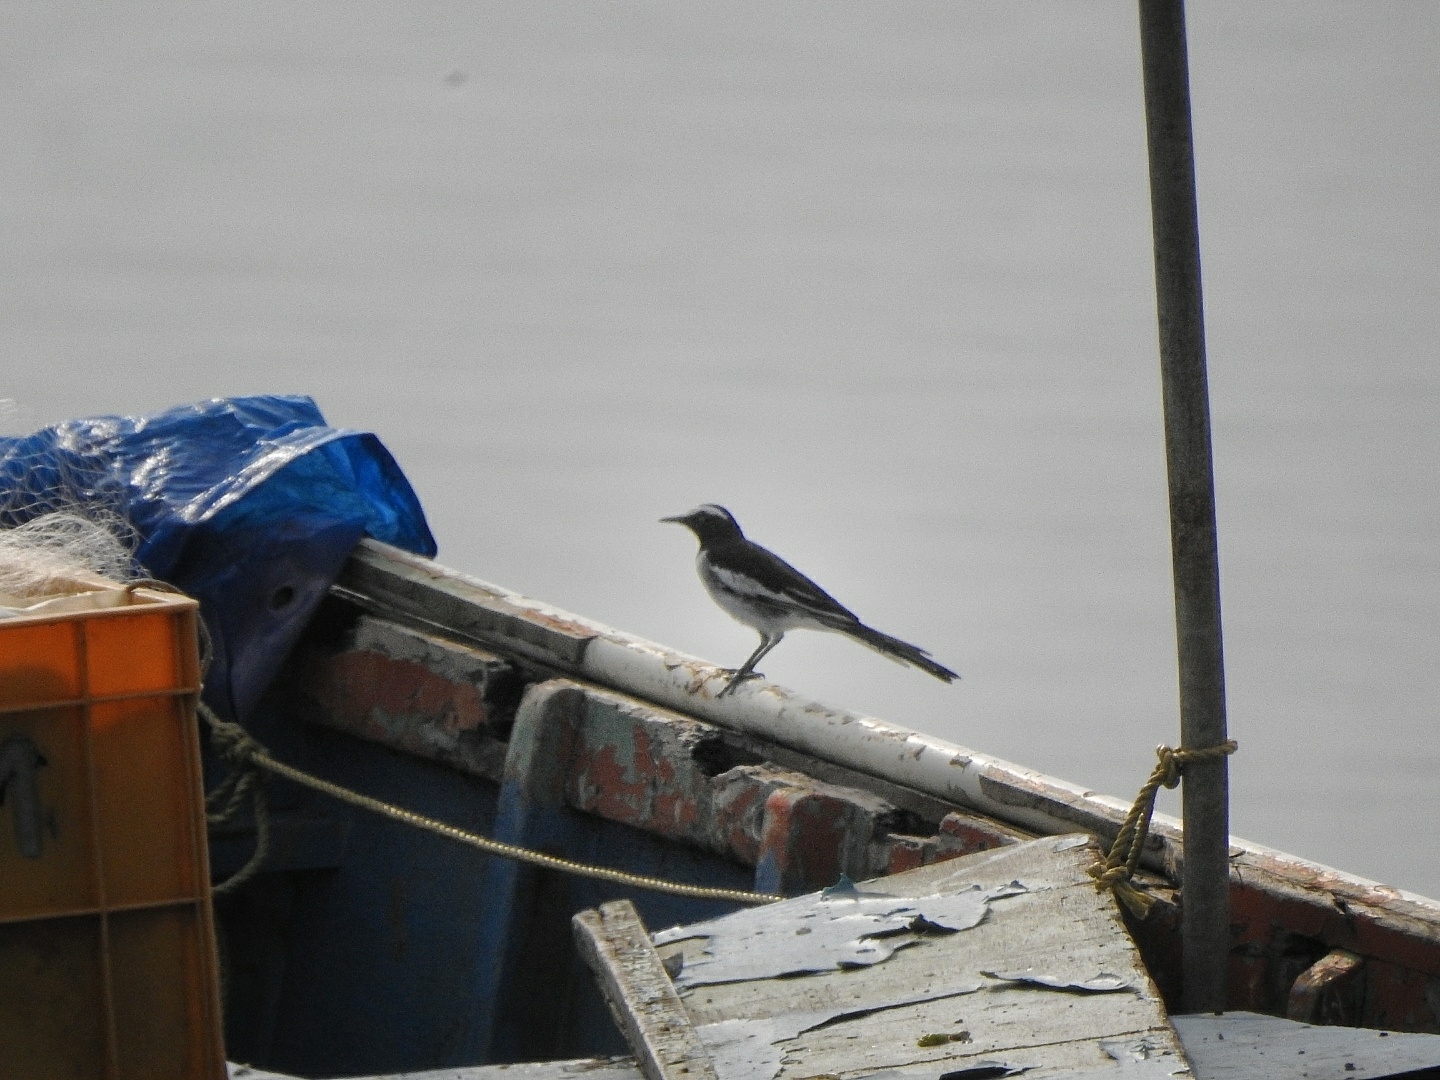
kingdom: Animalia
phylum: Chordata
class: Aves
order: Passeriformes
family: Motacillidae
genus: Motacilla
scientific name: Motacilla maderaspatensis
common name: White-browed wagtail
